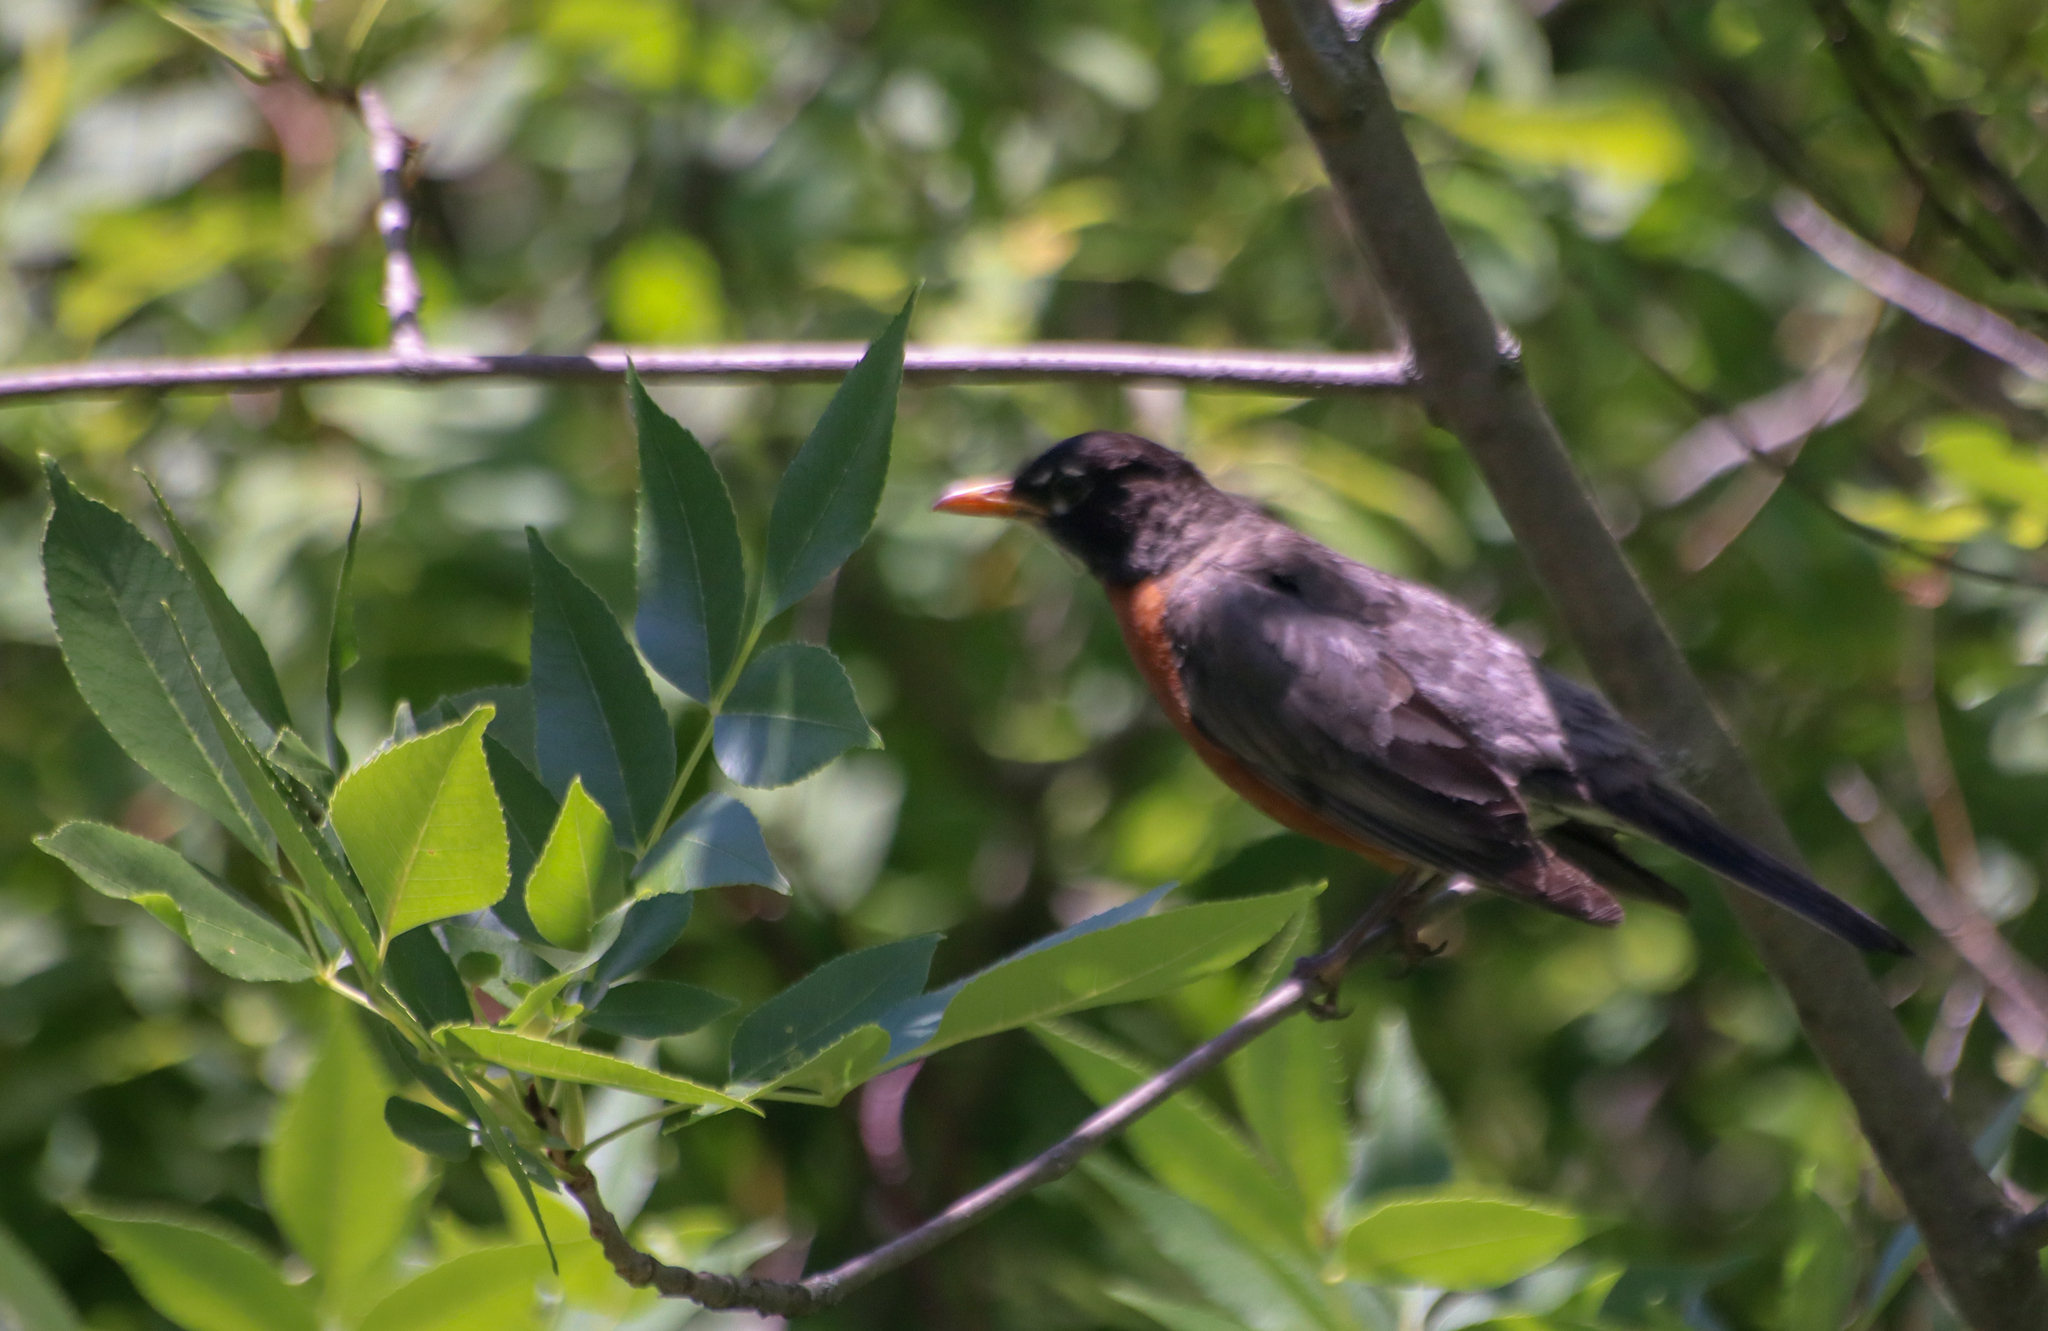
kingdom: Animalia
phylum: Chordata
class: Aves
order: Passeriformes
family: Turdidae
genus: Turdus
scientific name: Turdus migratorius
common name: American robin
